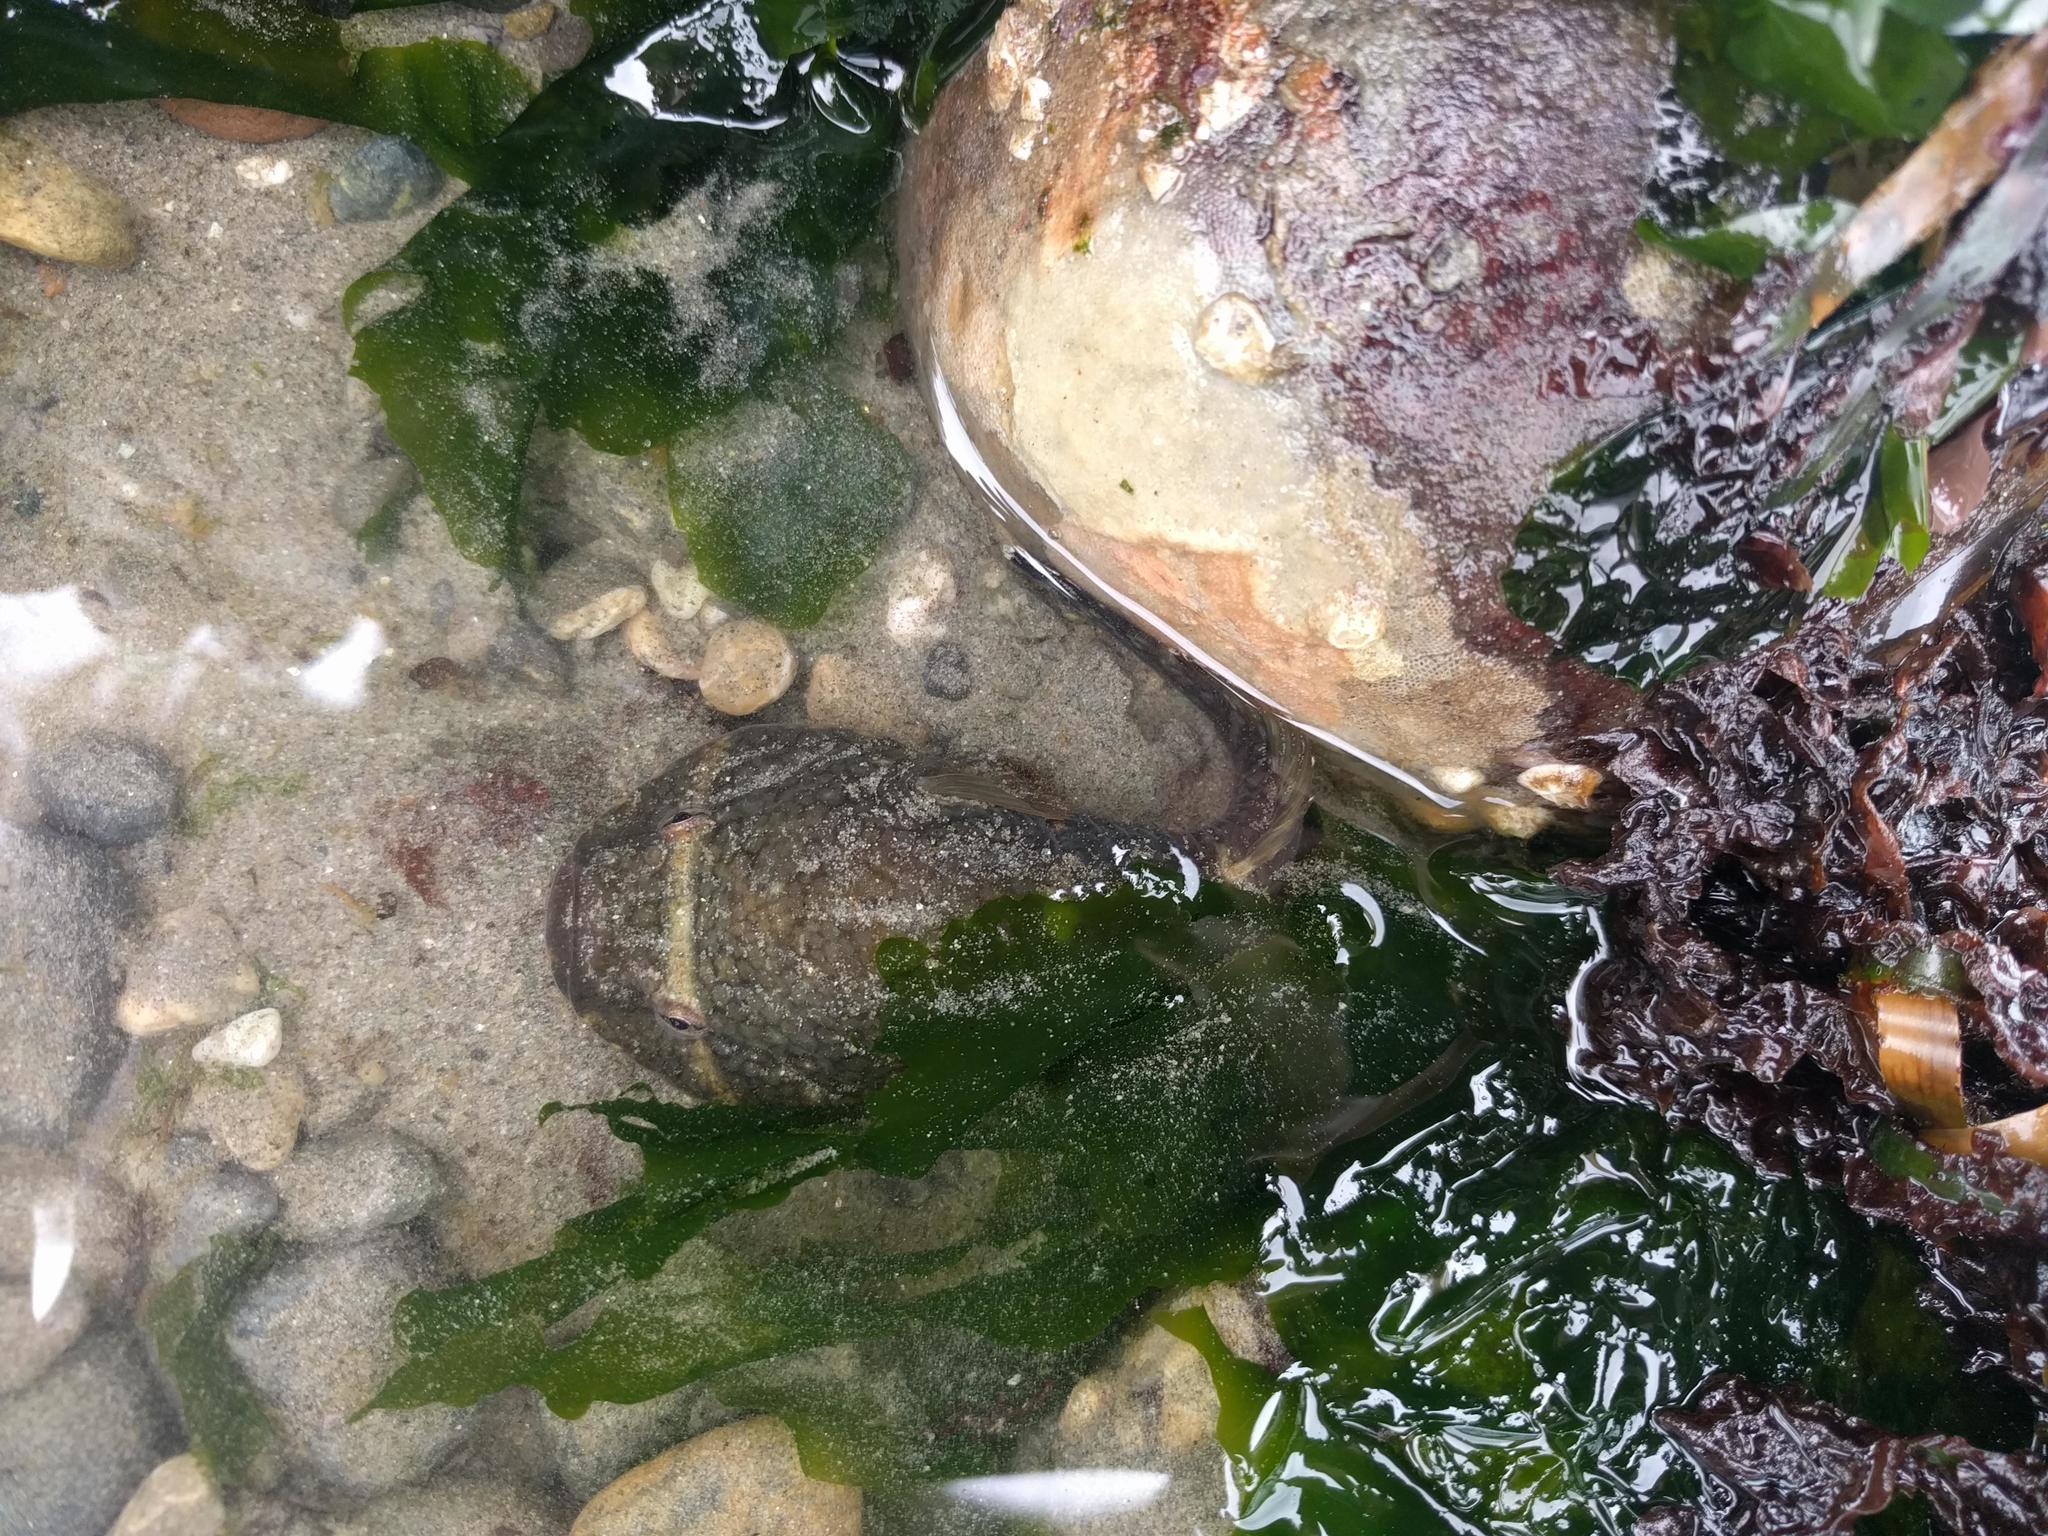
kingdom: Animalia
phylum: Chordata
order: Gobiesociformes
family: Gobiesocidae
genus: Gobiesox
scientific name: Gobiesox maeandricus
